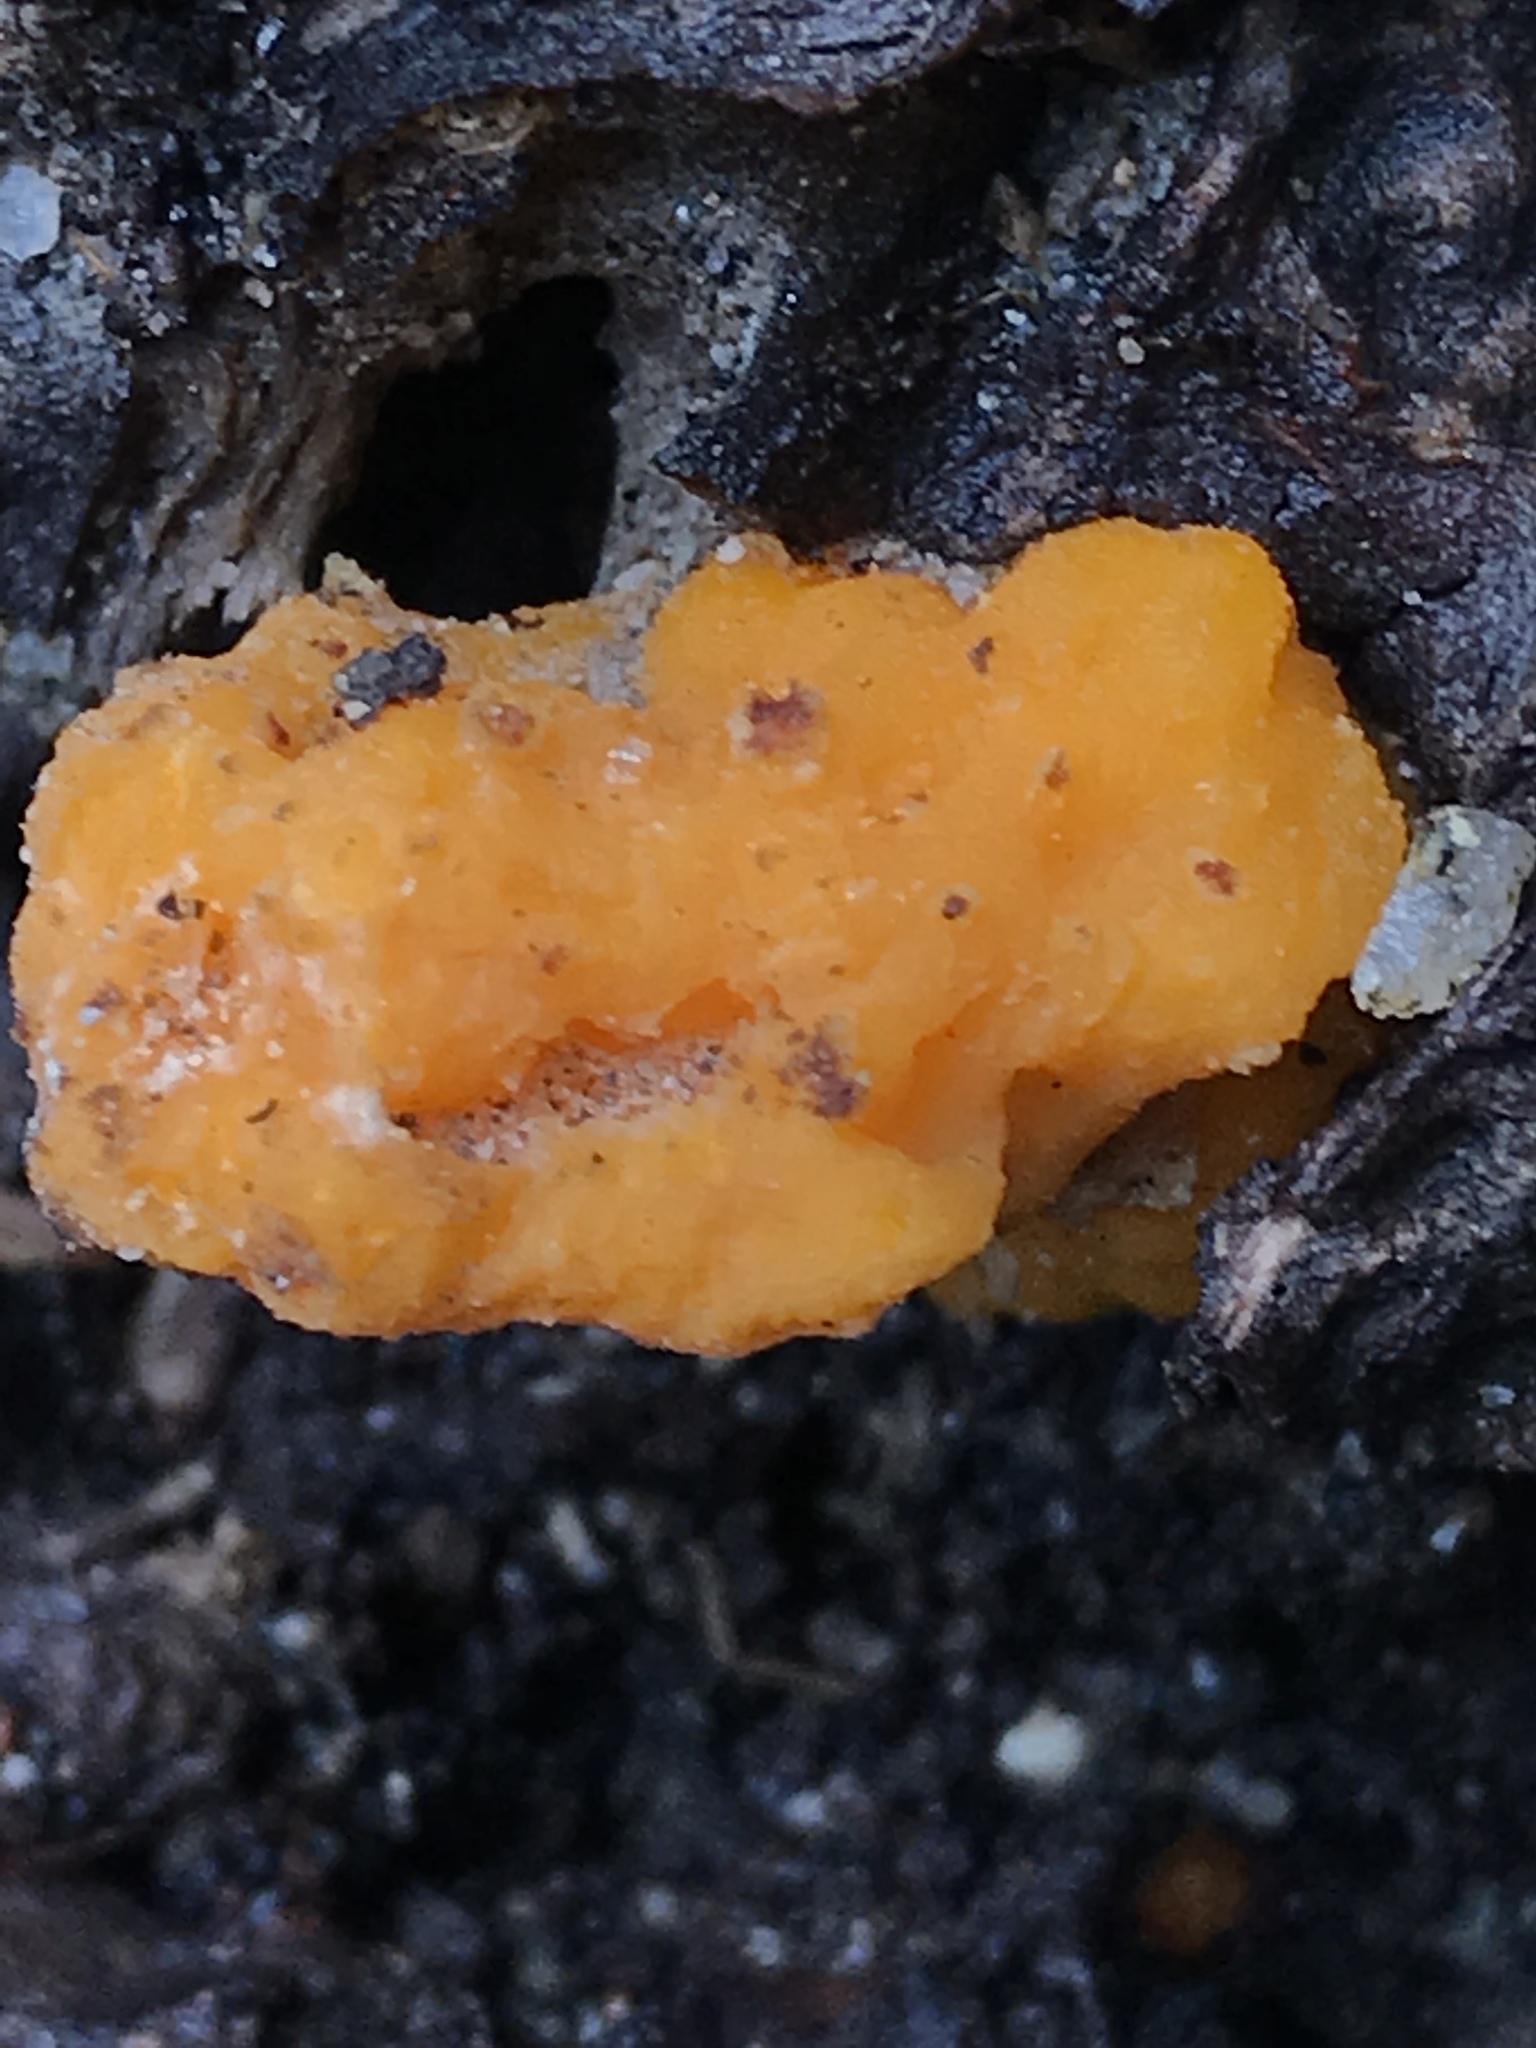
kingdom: Fungi
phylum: Basidiomycota
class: Tremellomycetes
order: Tremellales
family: Naemateliaceae
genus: Naematelia
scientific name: Naematelia aurantia
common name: Golden ear
